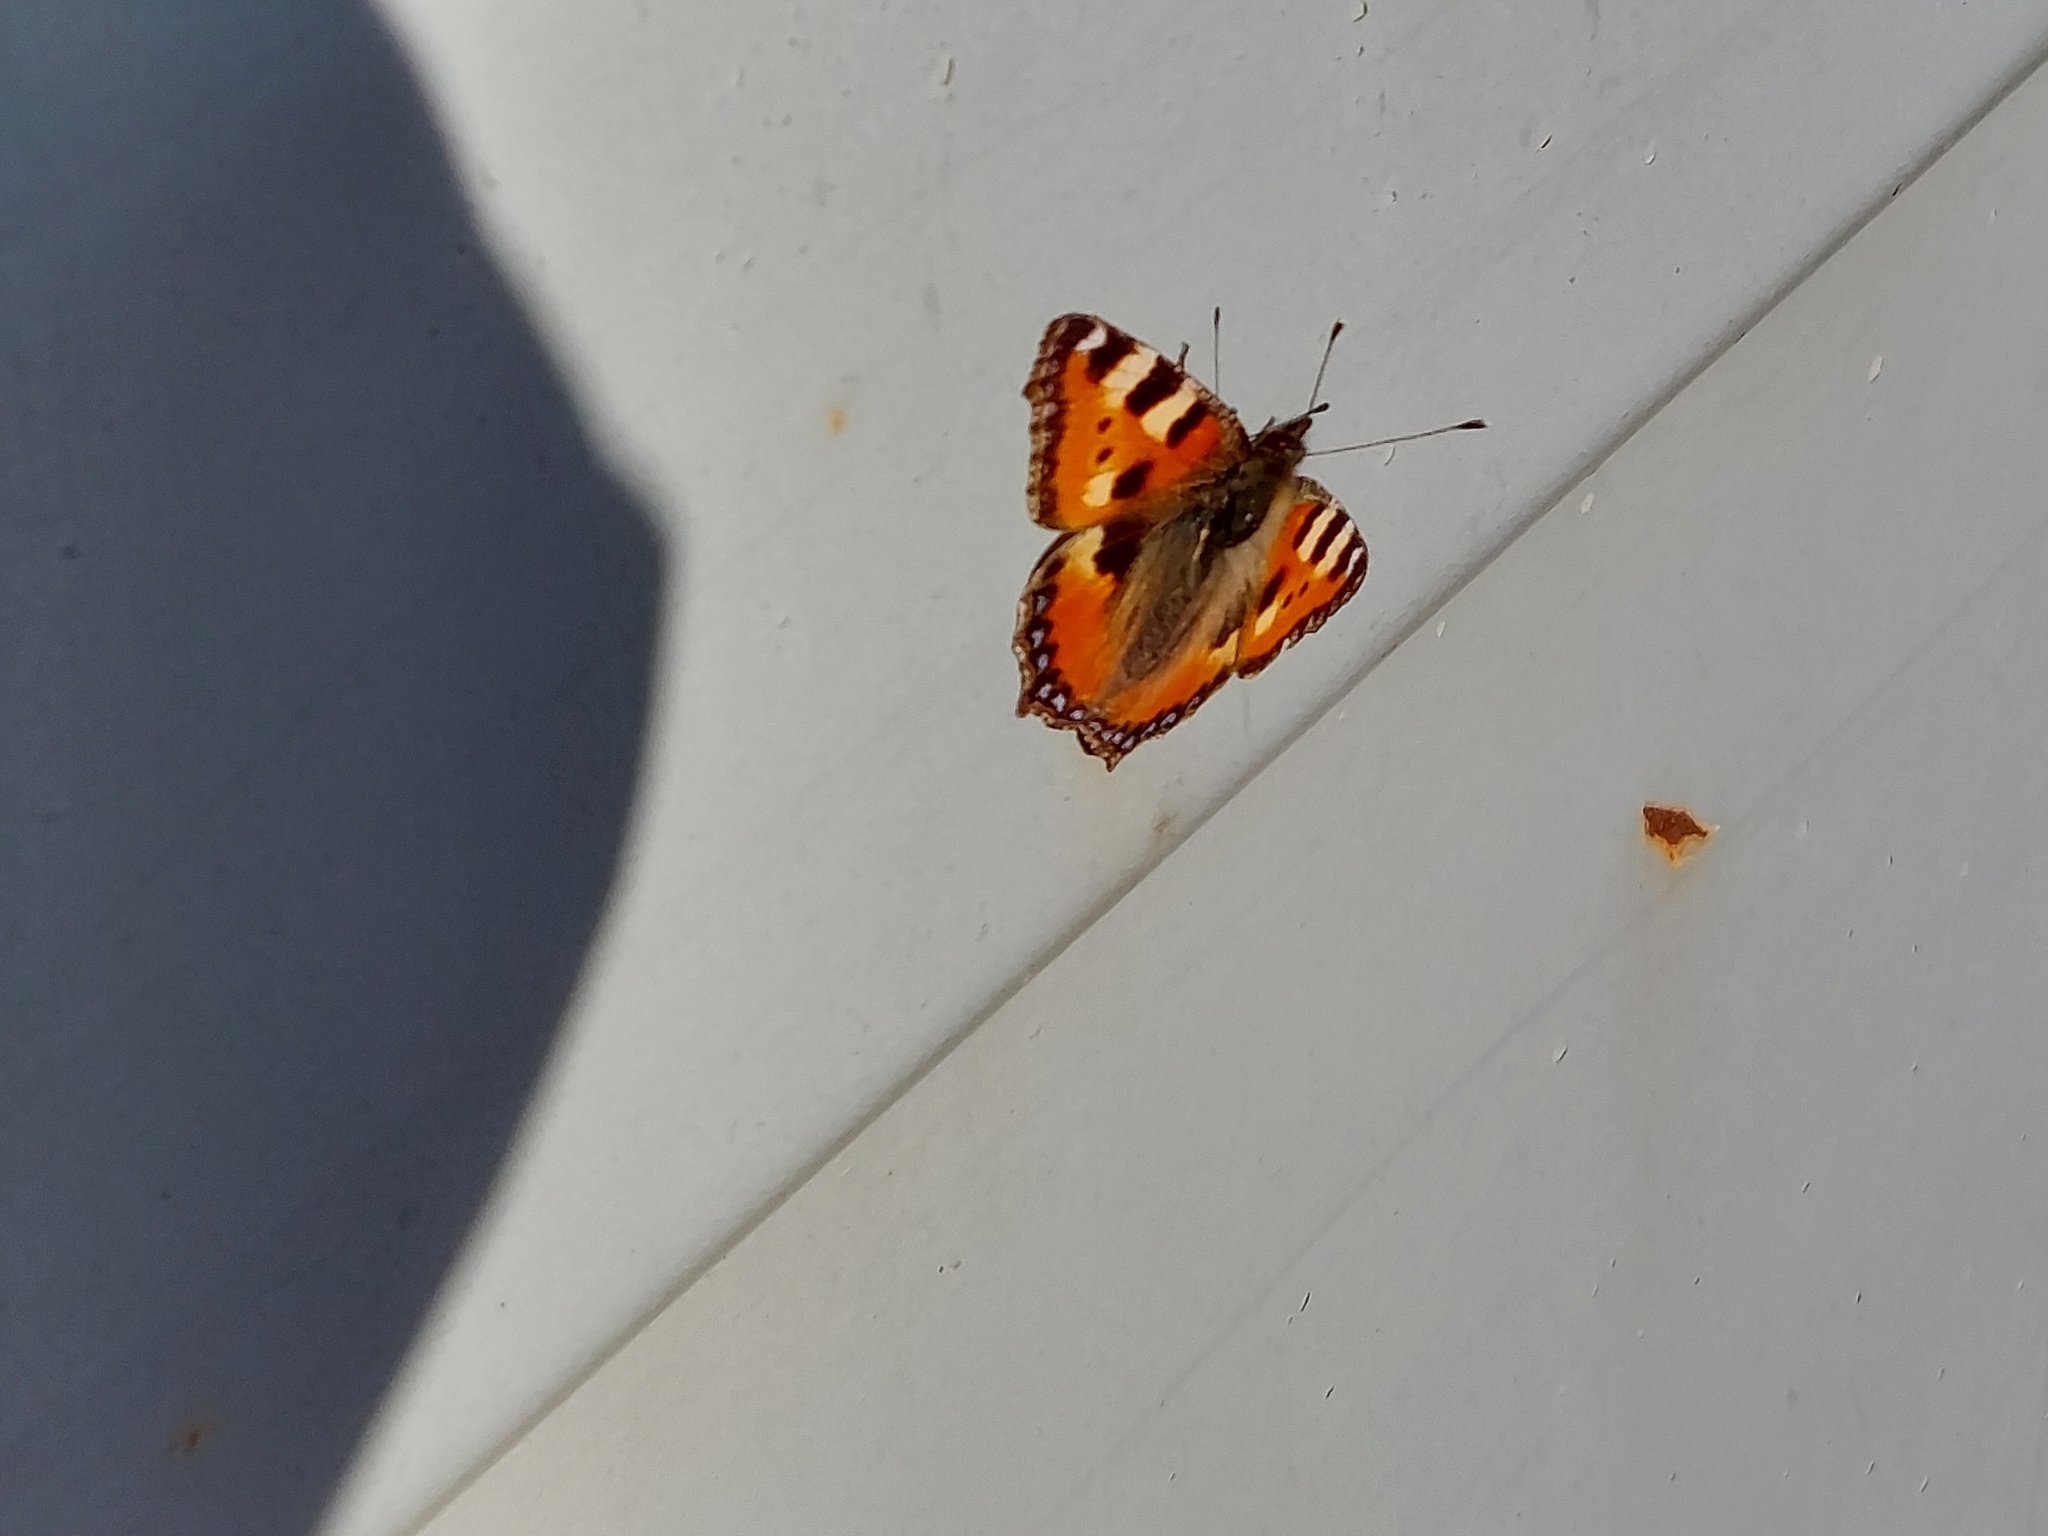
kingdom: Animalia
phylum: Arthropoda
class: Insecta
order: Lepidoptera
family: Nymphalidae
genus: Aglais
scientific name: Aglais urticae
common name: Small tortoiseshell
